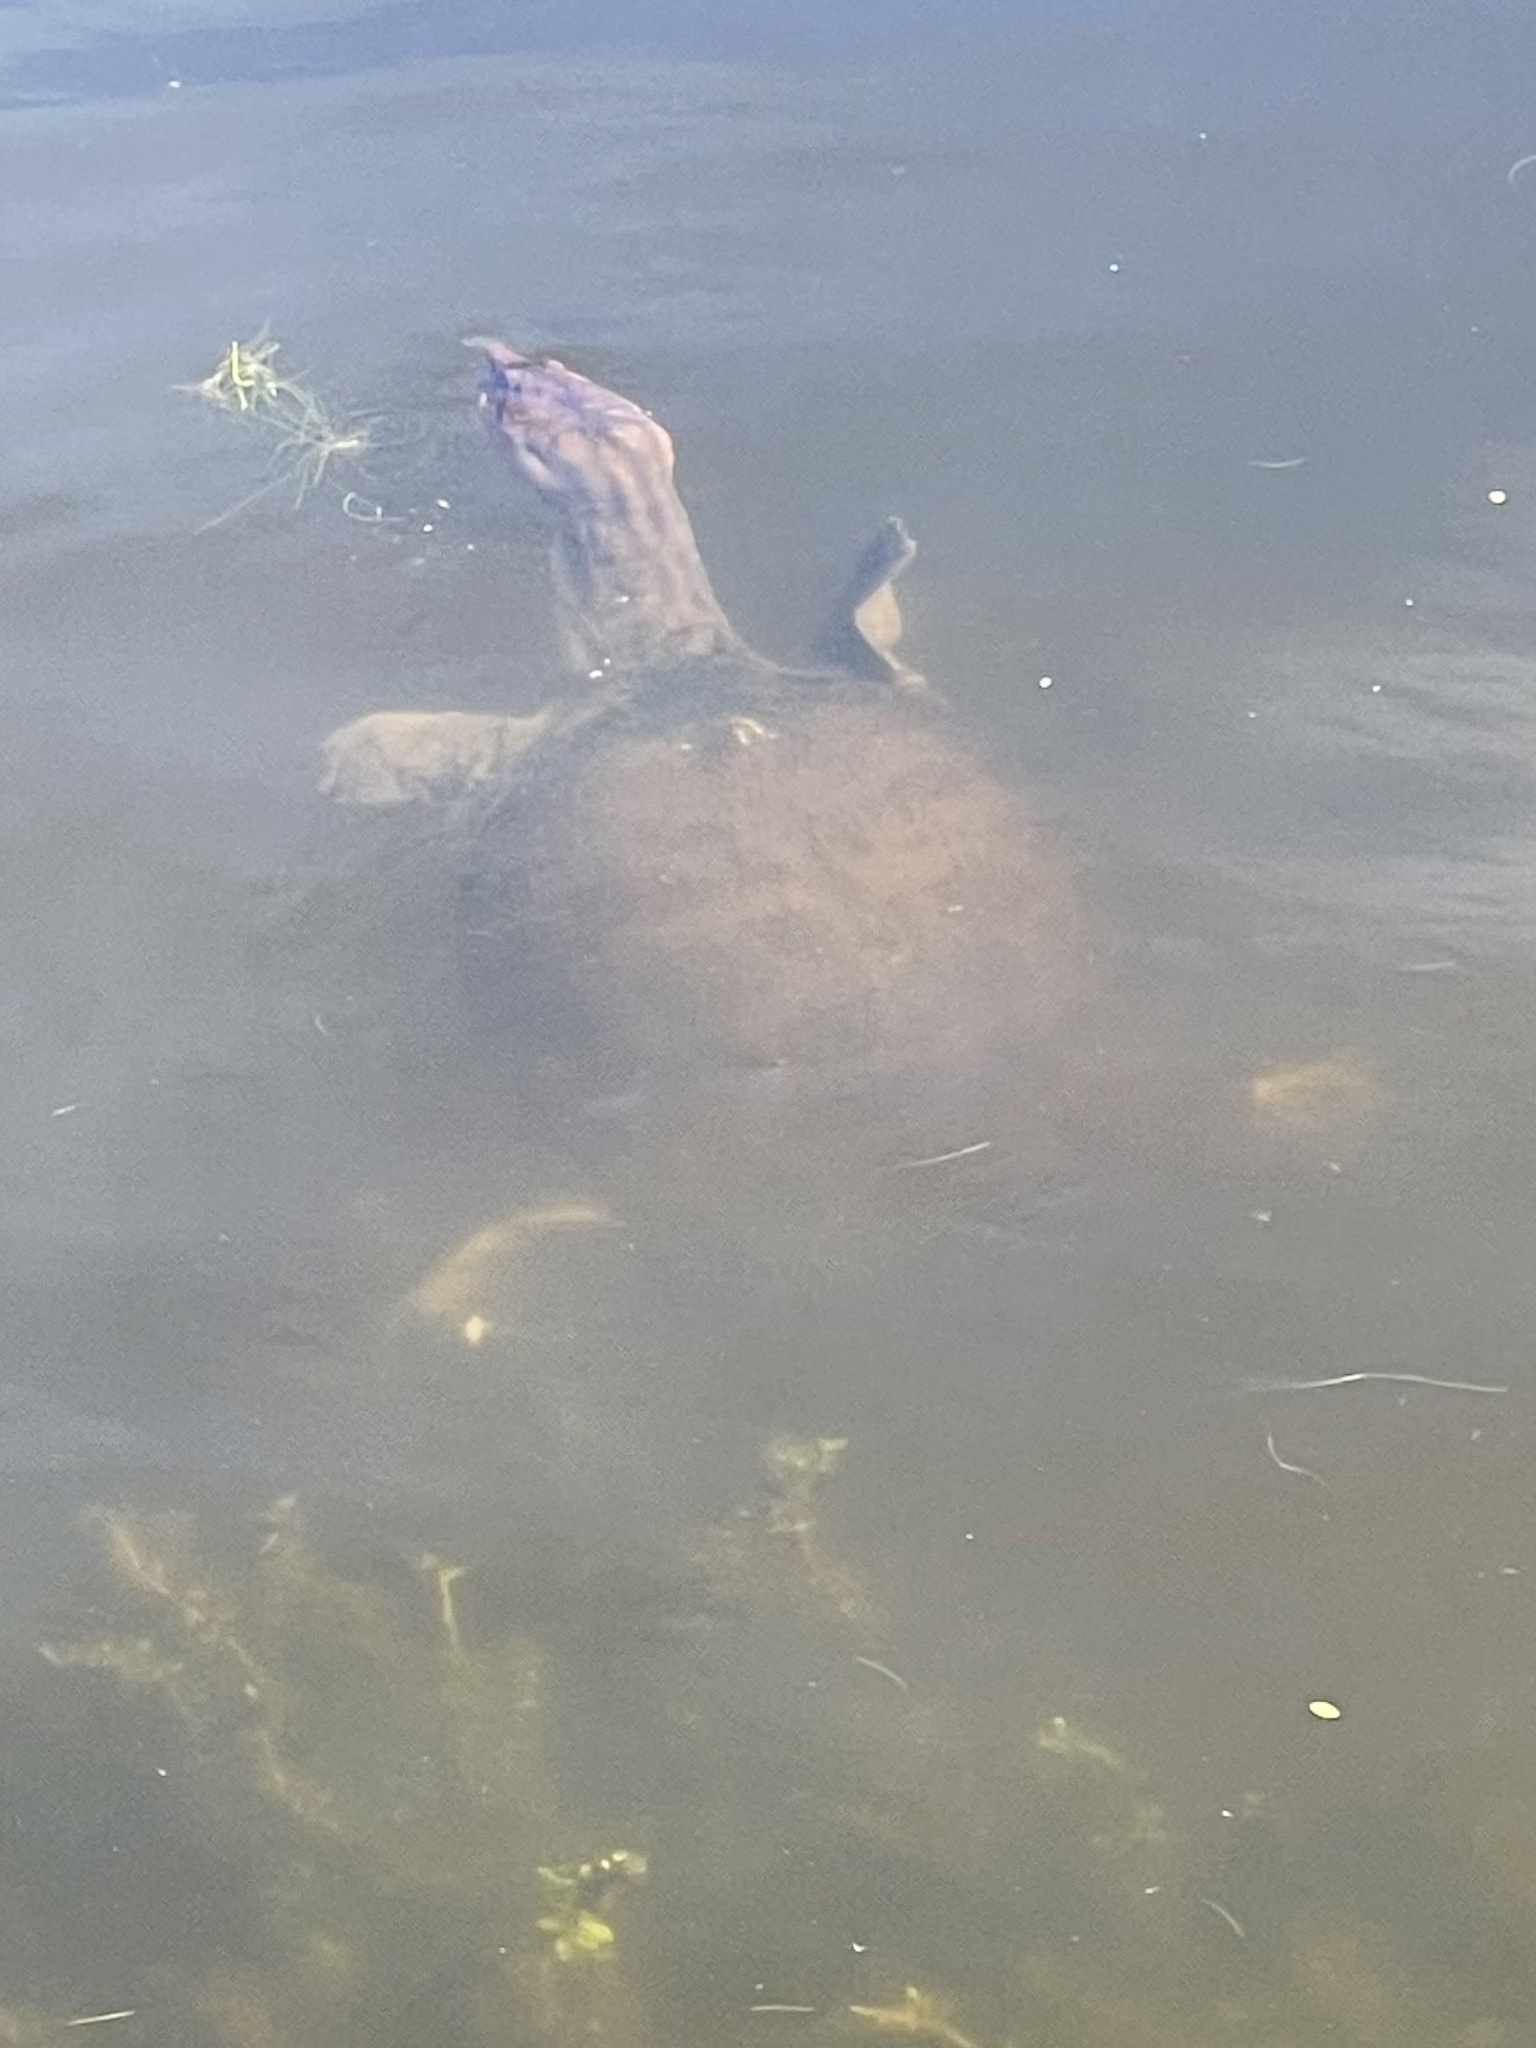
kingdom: Animalia
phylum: Chordata
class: Testudines
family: Trionychidae
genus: Apalone
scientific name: Apalone ferox
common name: Florida softshell turtle
